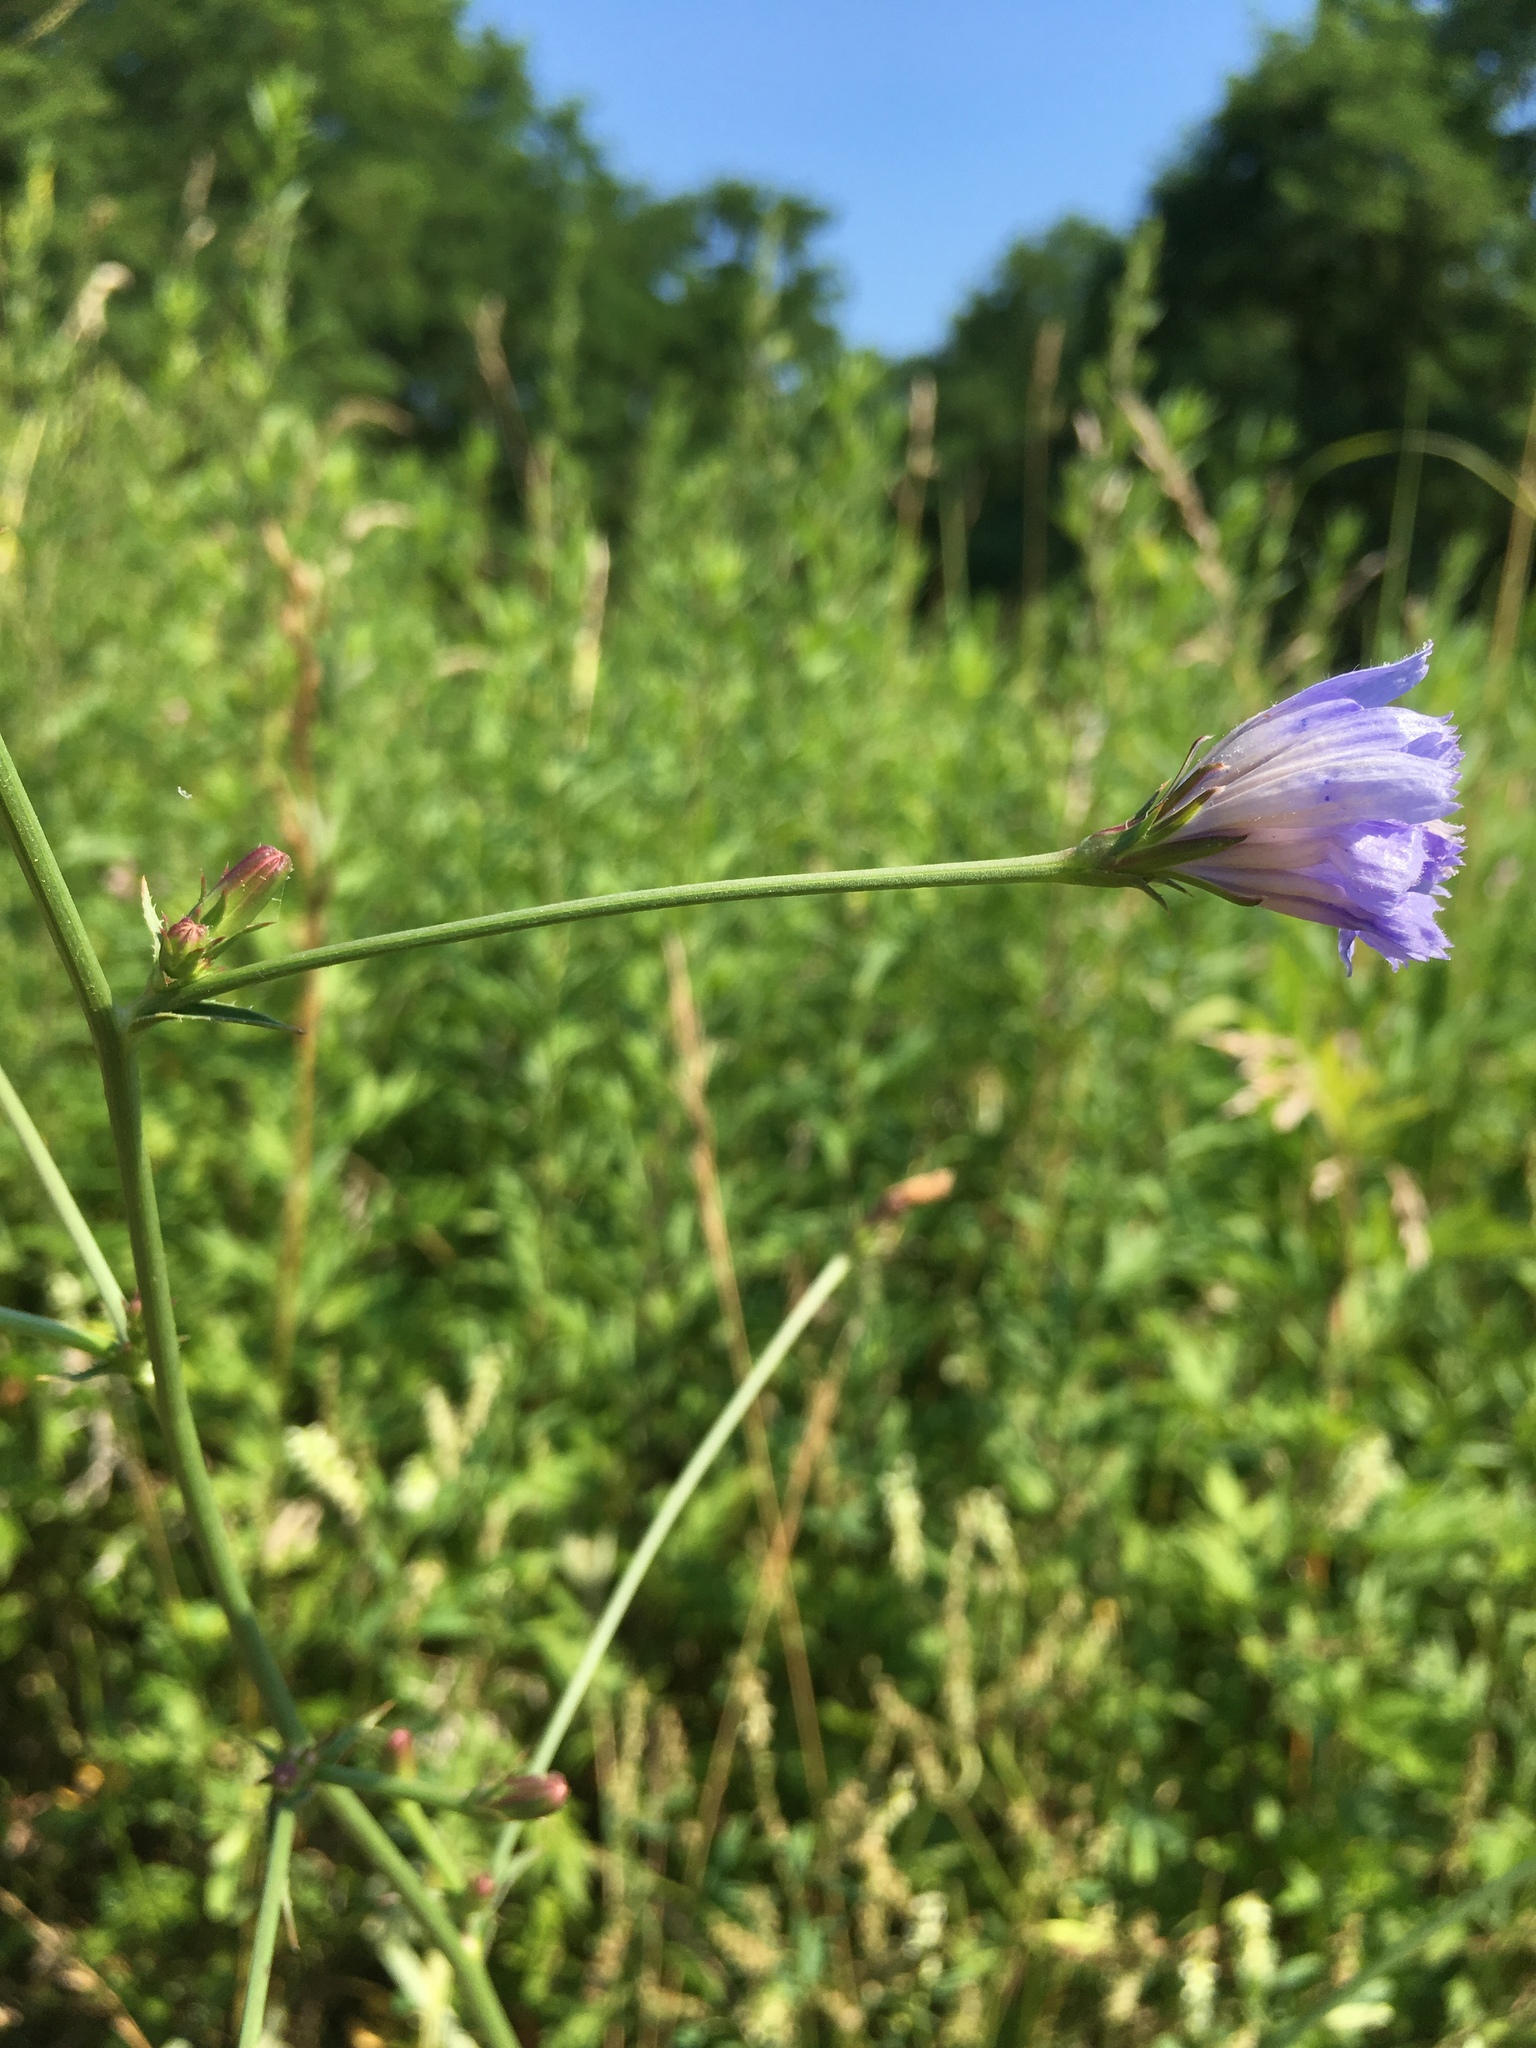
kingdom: Plantae
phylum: Tracheophyta
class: Magnoliopsida
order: Asterales
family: Asteraceae
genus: Cichorium
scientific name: Cichorium intybus
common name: Chicory
